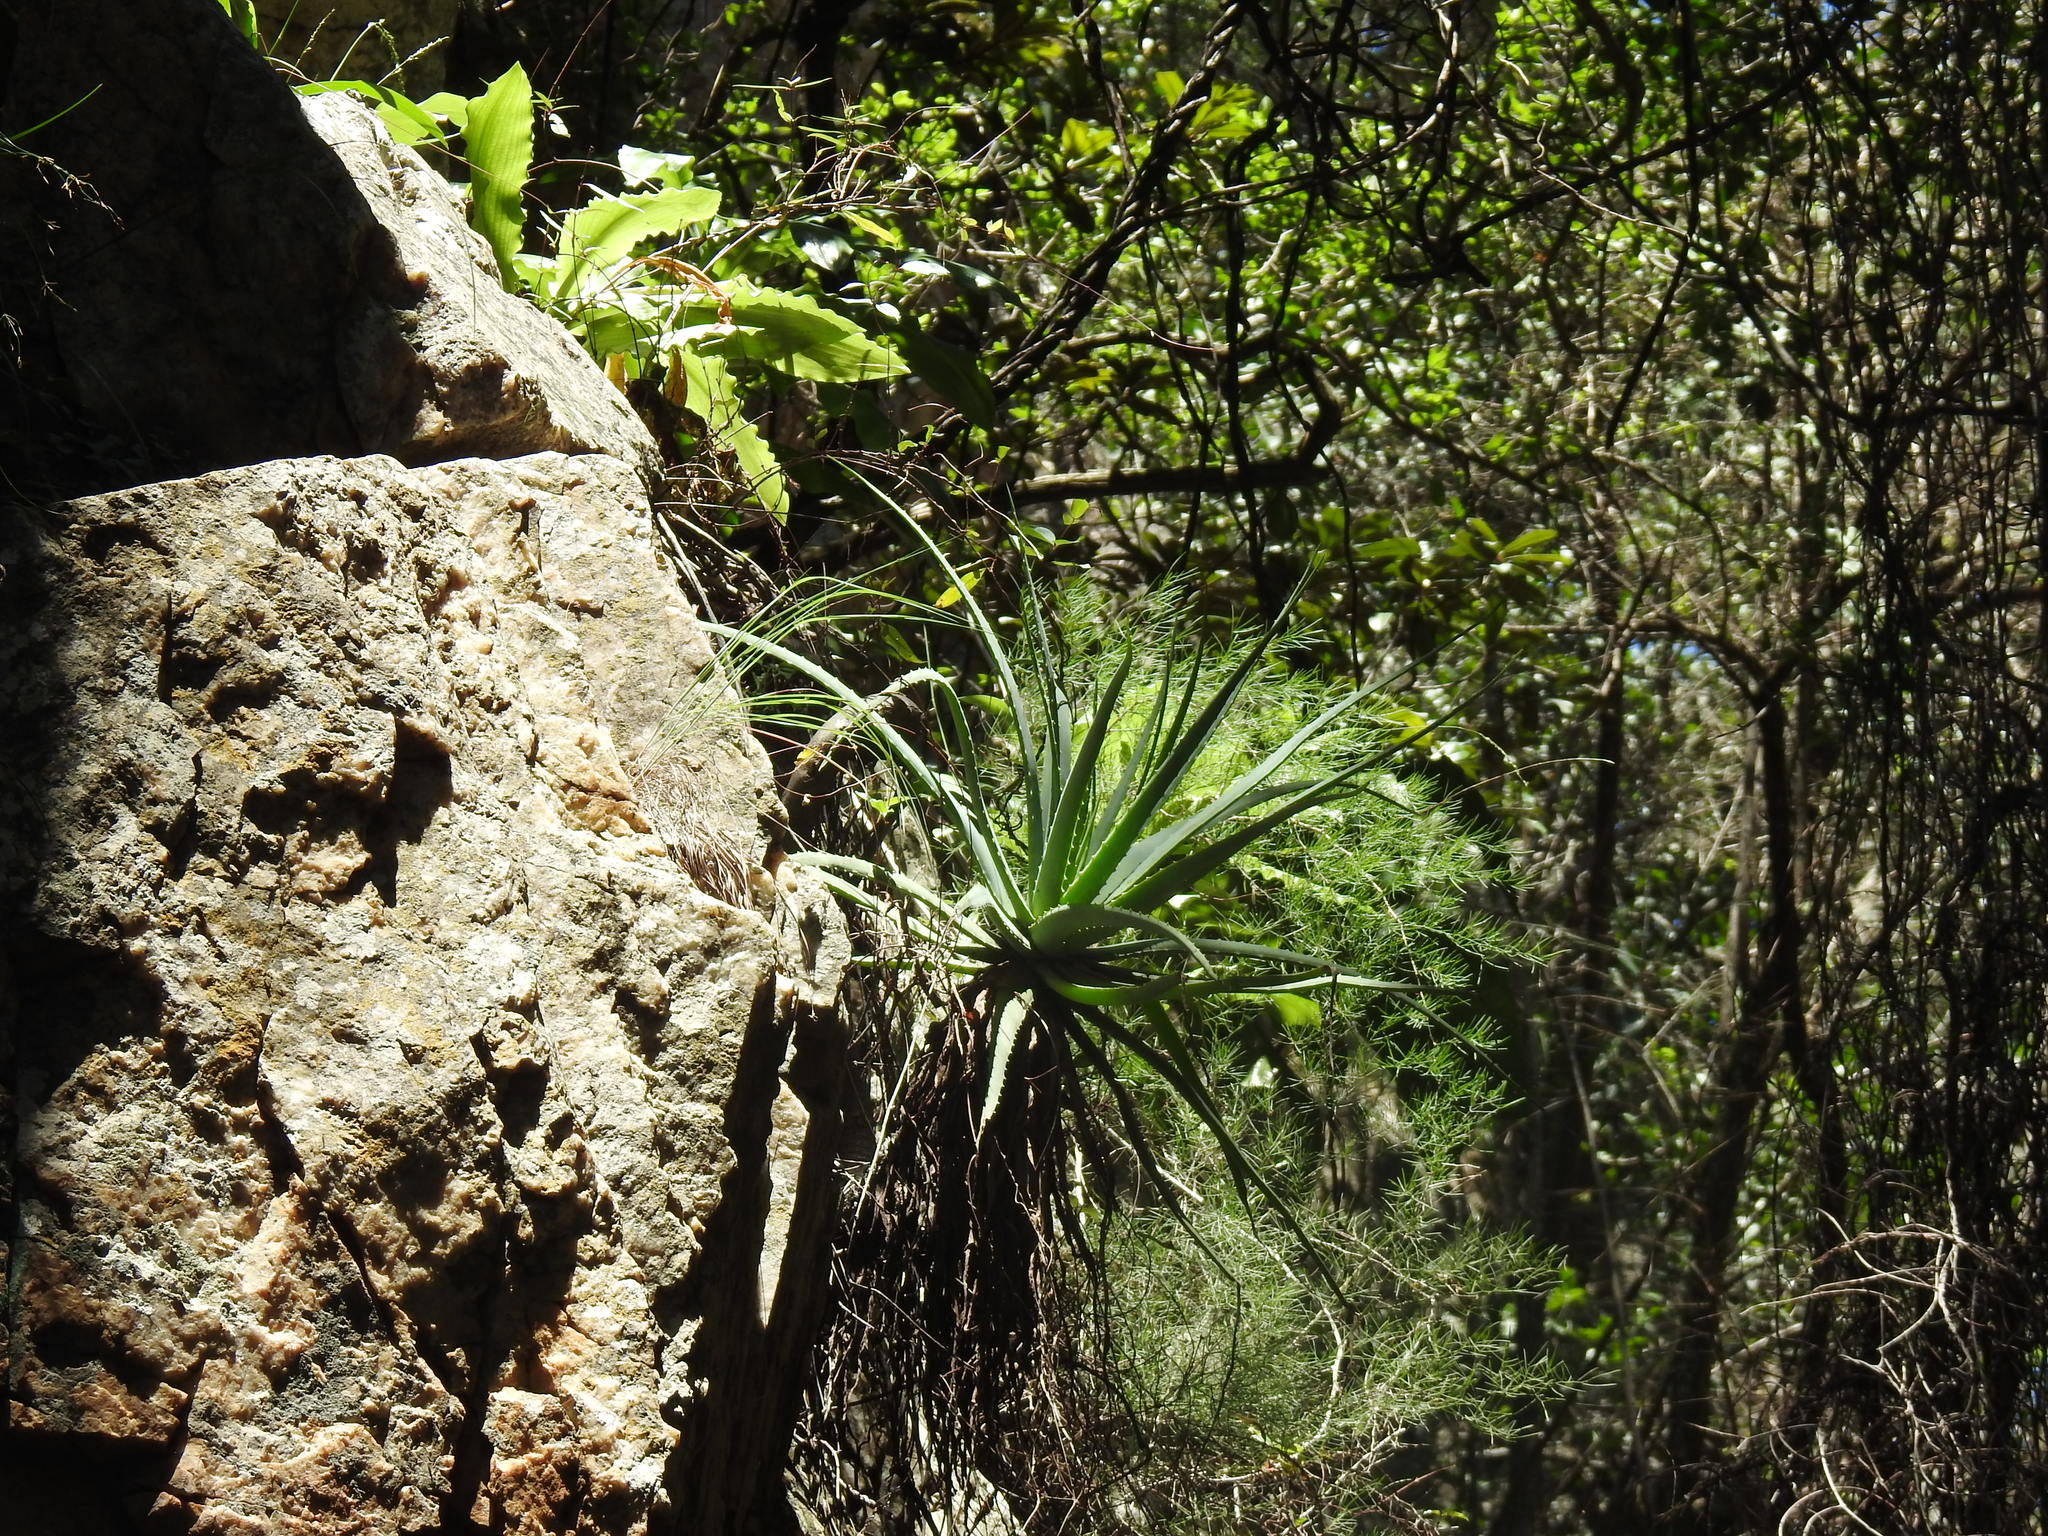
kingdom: Plantae
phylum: Tracheophyta
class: Liliopsida
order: Asparagales
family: Asphodelaceae
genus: Aloe
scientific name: Aloe mutabilis
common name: Blue krantz aloe
